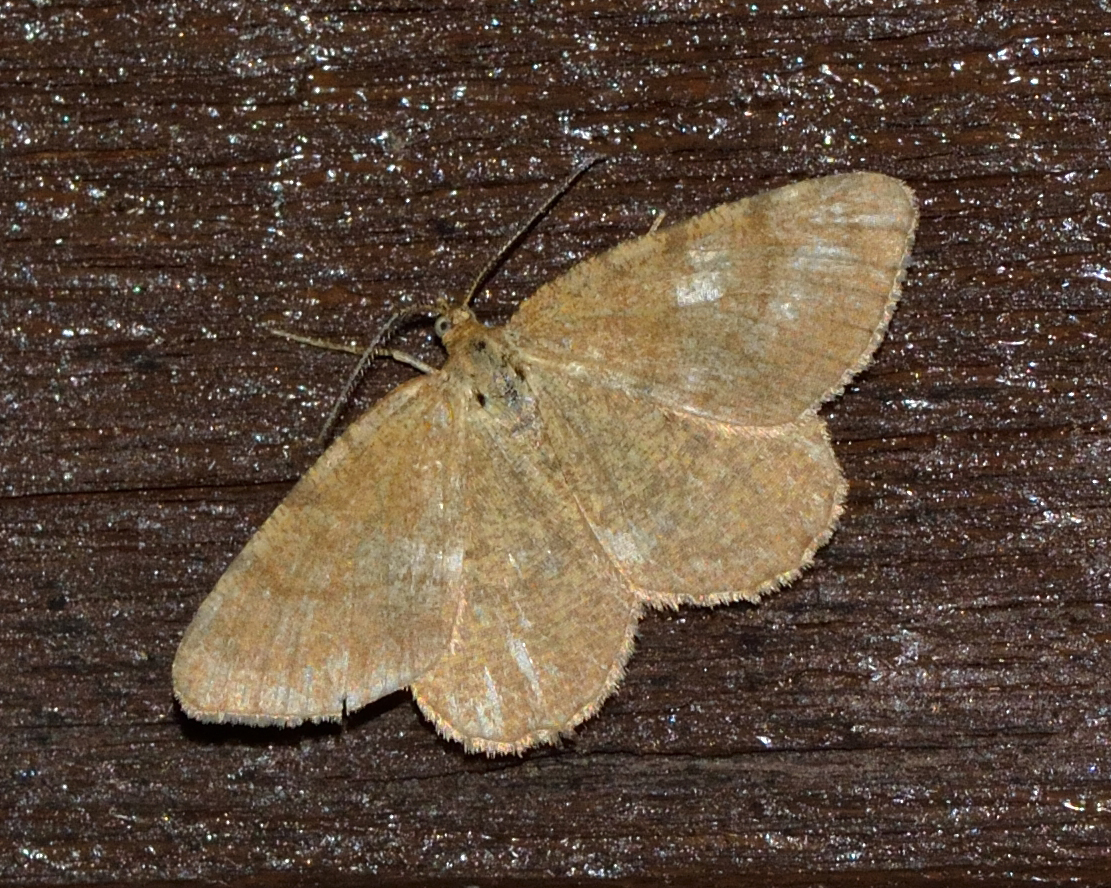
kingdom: Animalia
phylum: Arthropoda
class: Insecta
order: Lepidoptera
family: Geometridae
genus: Macaria
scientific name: Macaria brunneata
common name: Rannoch looper
